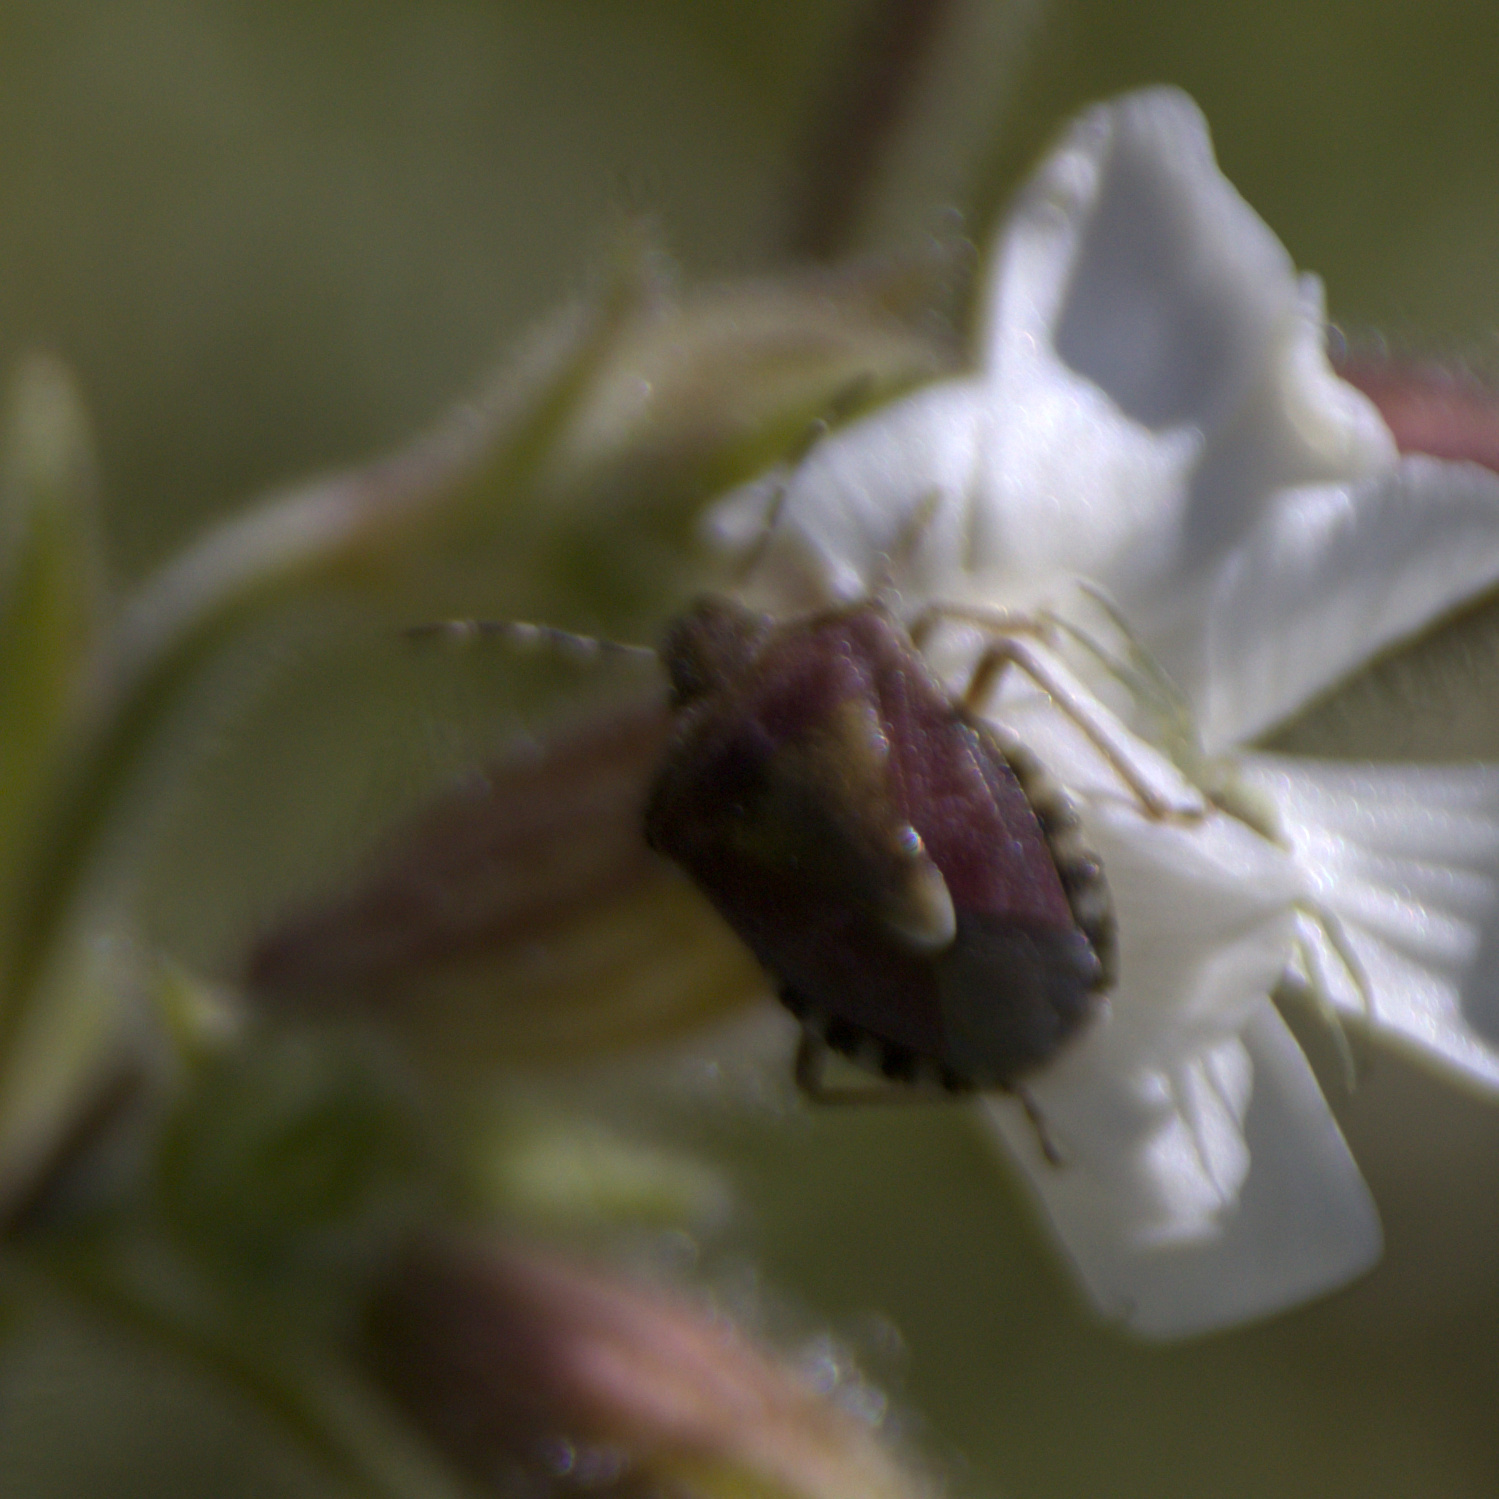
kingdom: Animalia
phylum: Arthropoda
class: Insecta
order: Hemiptera
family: Pentatomidae
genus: Dolycoris
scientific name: Dolycoris baccarum
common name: Sloe bug
